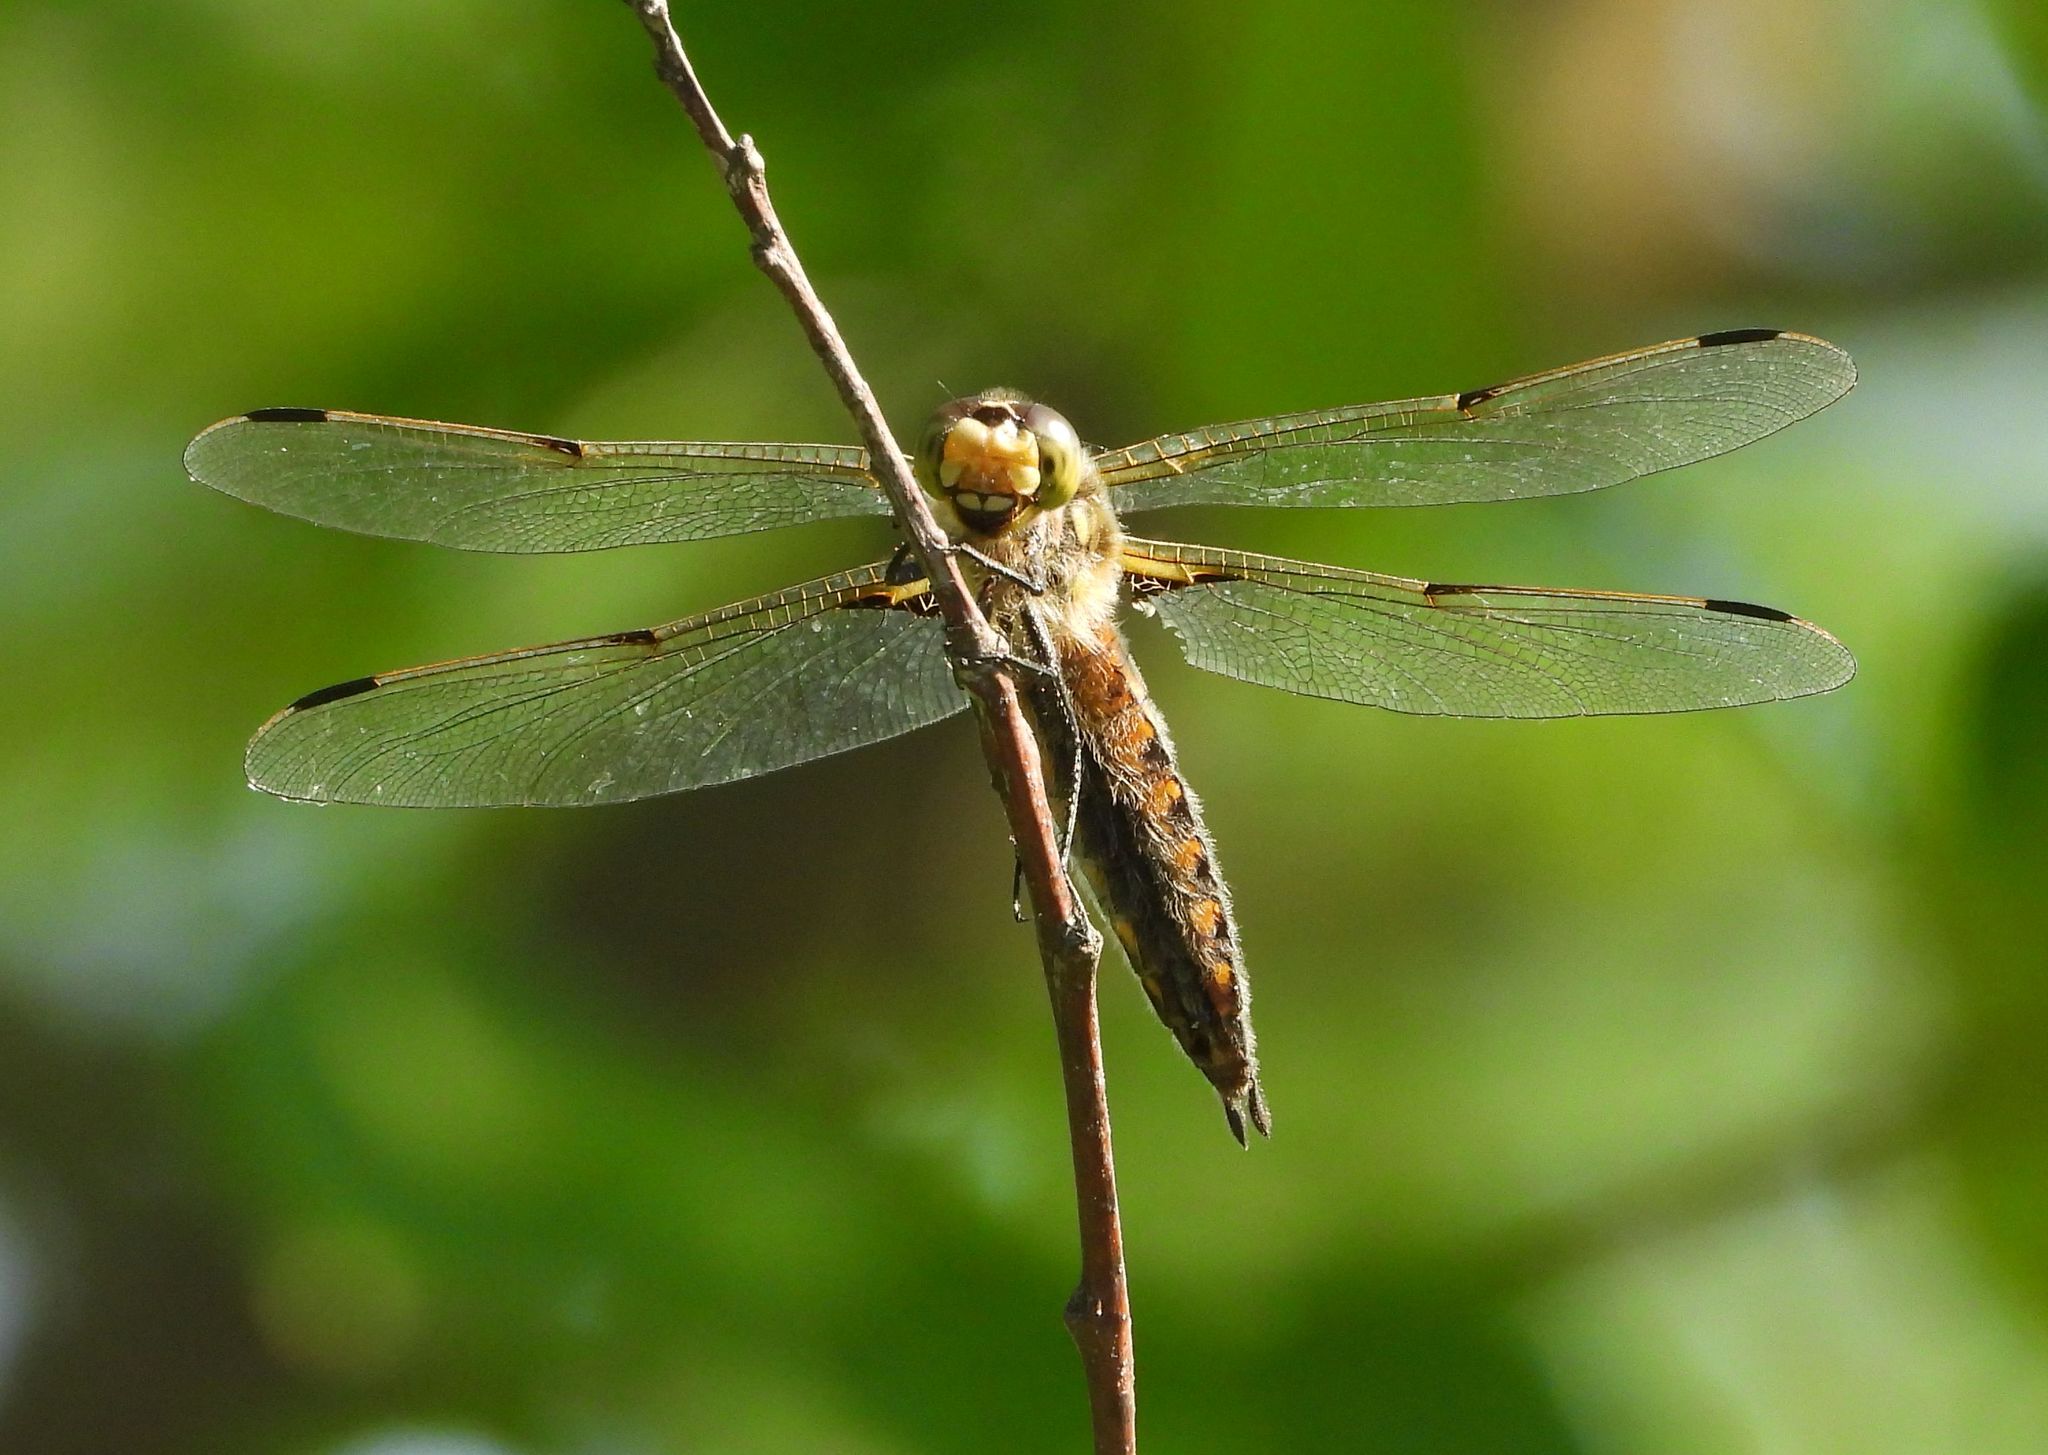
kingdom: Animalia
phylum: Arthropoda
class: Insecta
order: Odonata
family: Libellulidae
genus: Libellula
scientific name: Libellula quadrimaculata
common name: Four-spotted chaser
